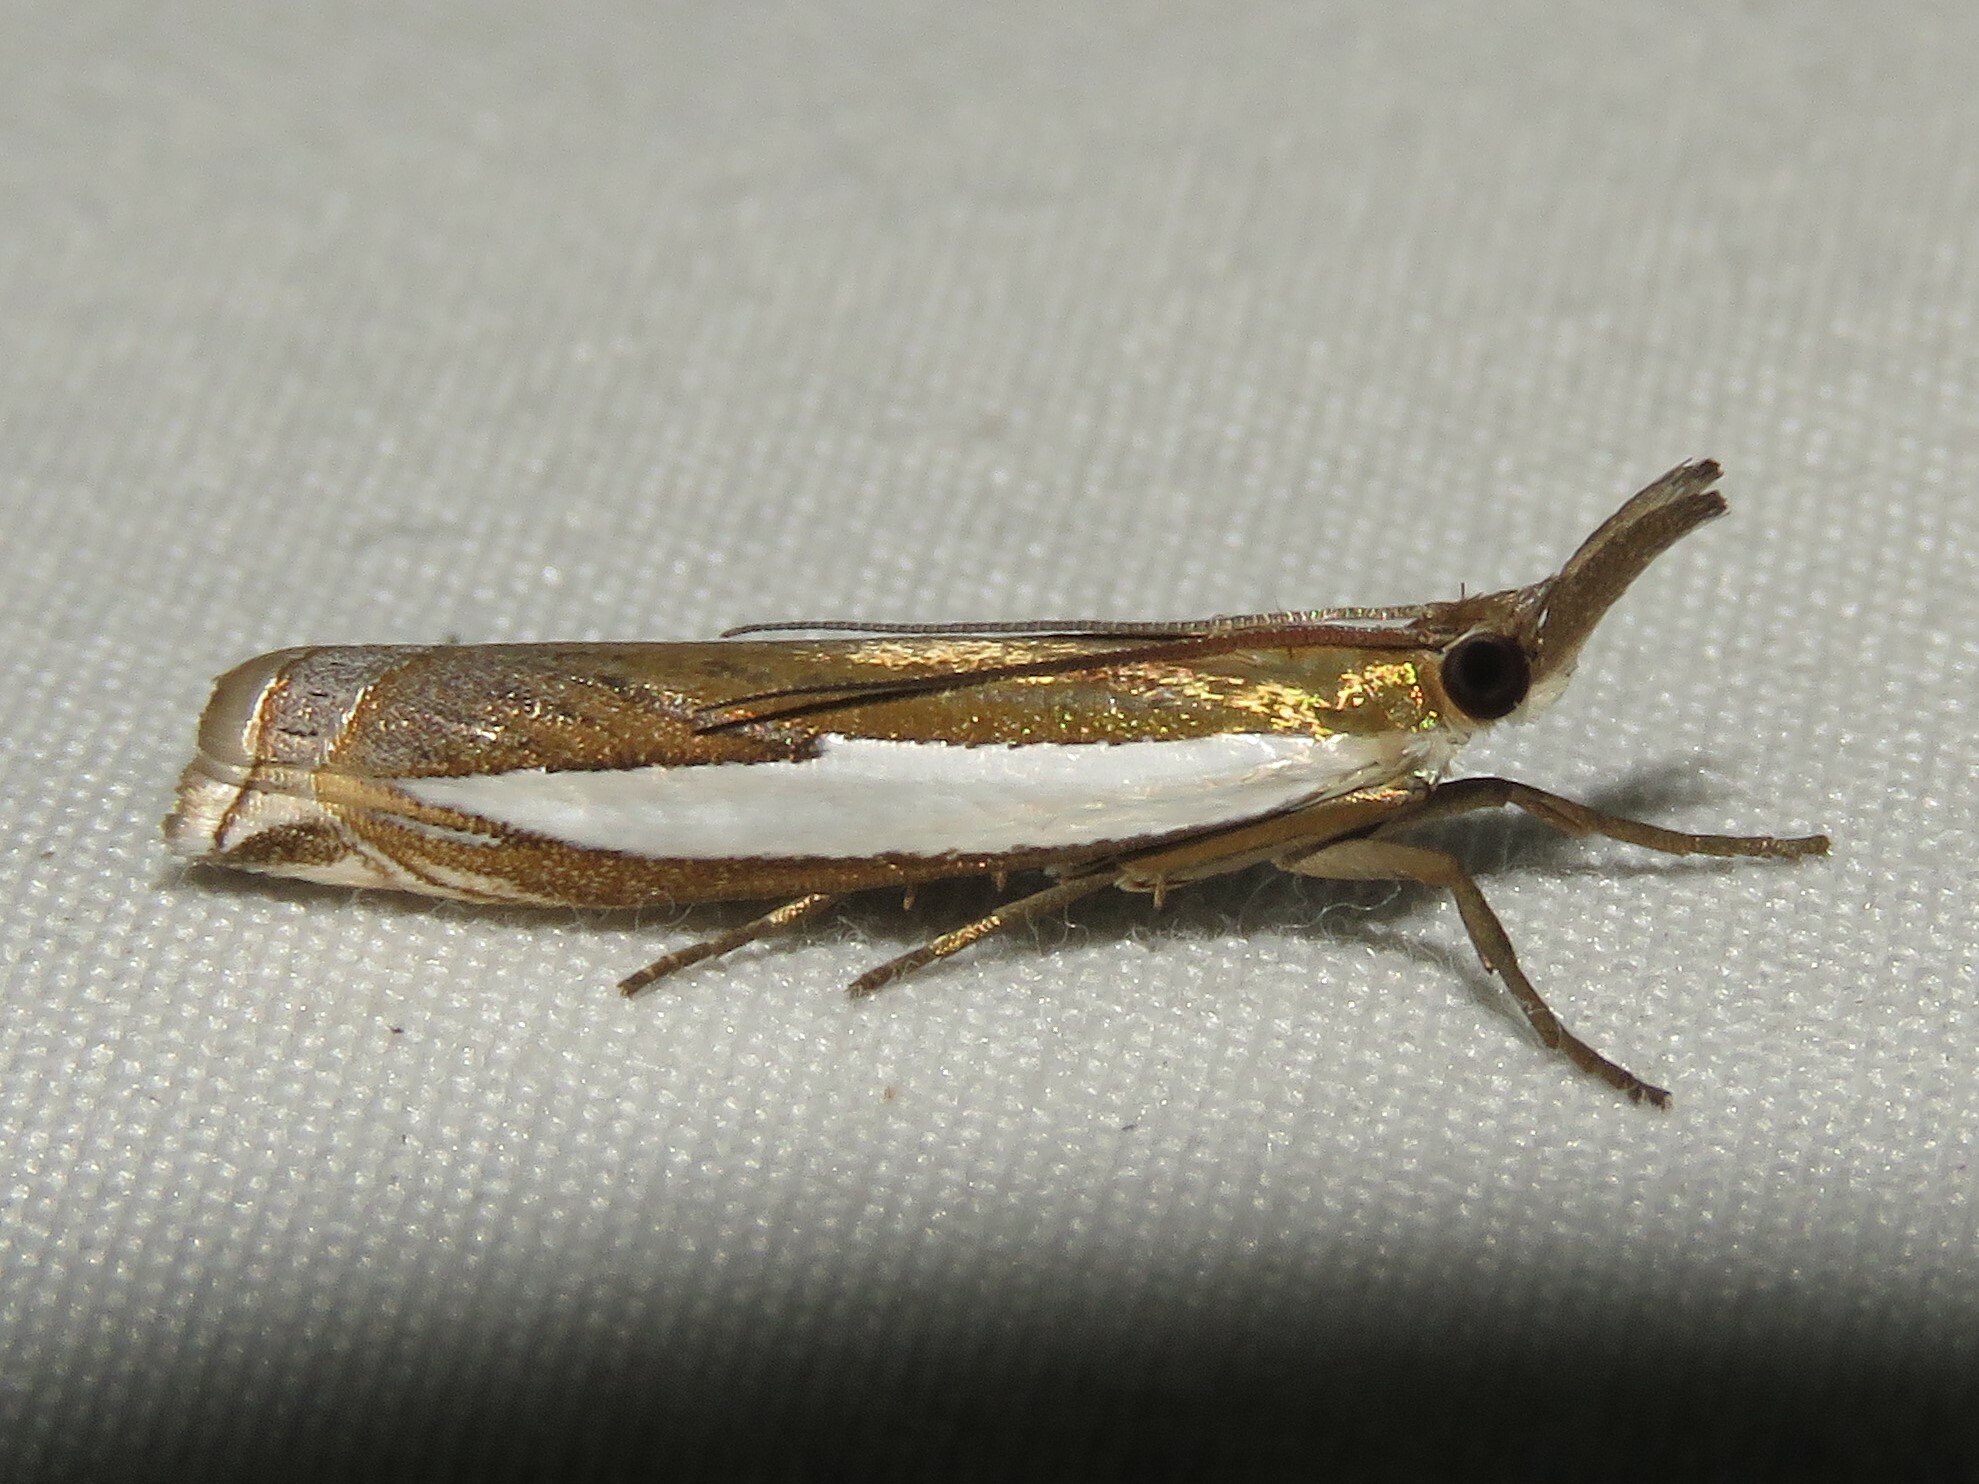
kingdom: Animalia
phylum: Arthropoda
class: Insecta
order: Lepidoptera
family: Crambidae
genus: Crambus
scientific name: Crambus leachellus
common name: Leach's grass-veneer
